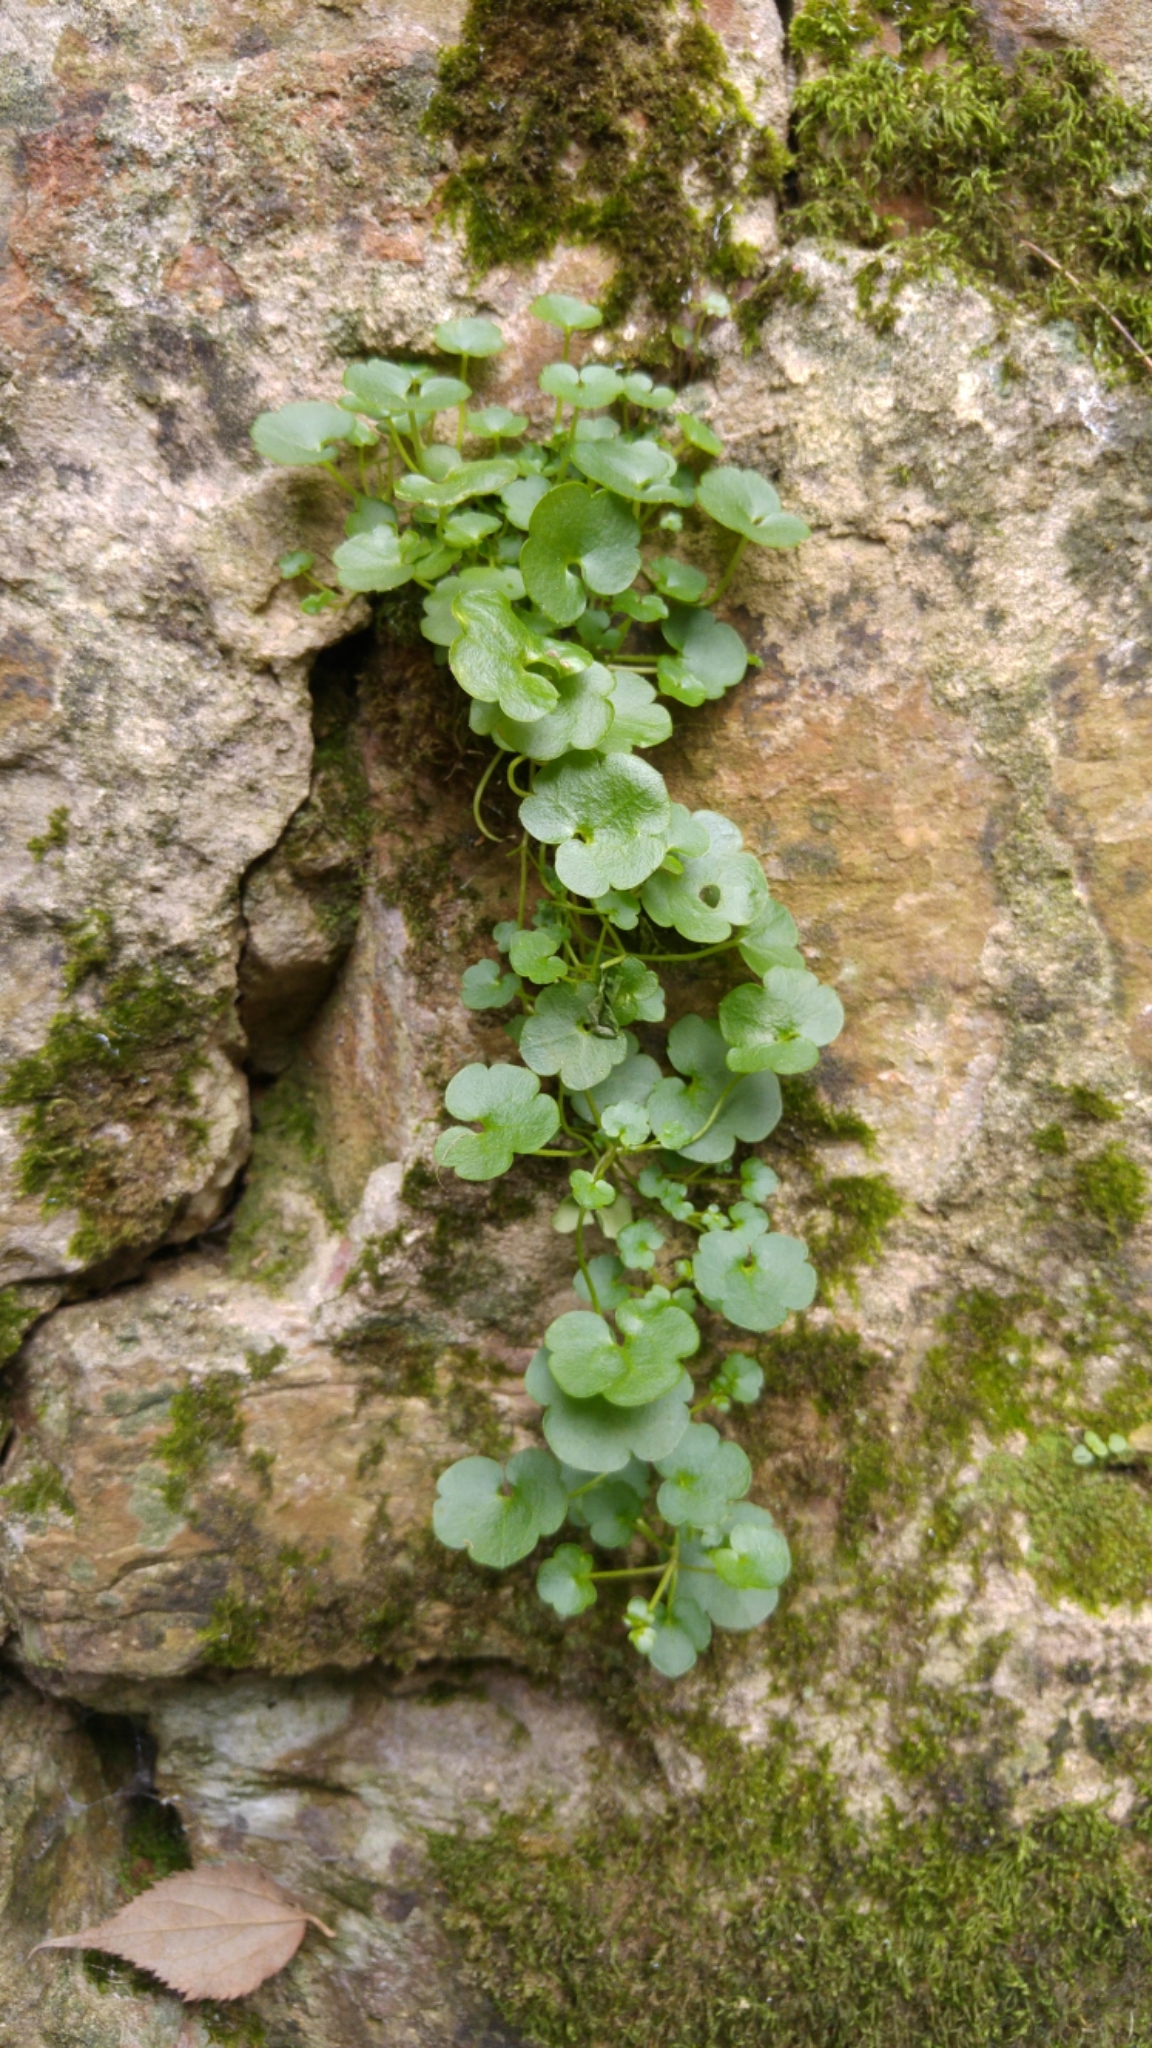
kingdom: Plantae
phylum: Tracheophyta
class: Magnoliopsida
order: Lamiales
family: Plantaginaceae
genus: Cymbalaria
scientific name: Cymbalaria muralis
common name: Ivy-leaved toadflax
